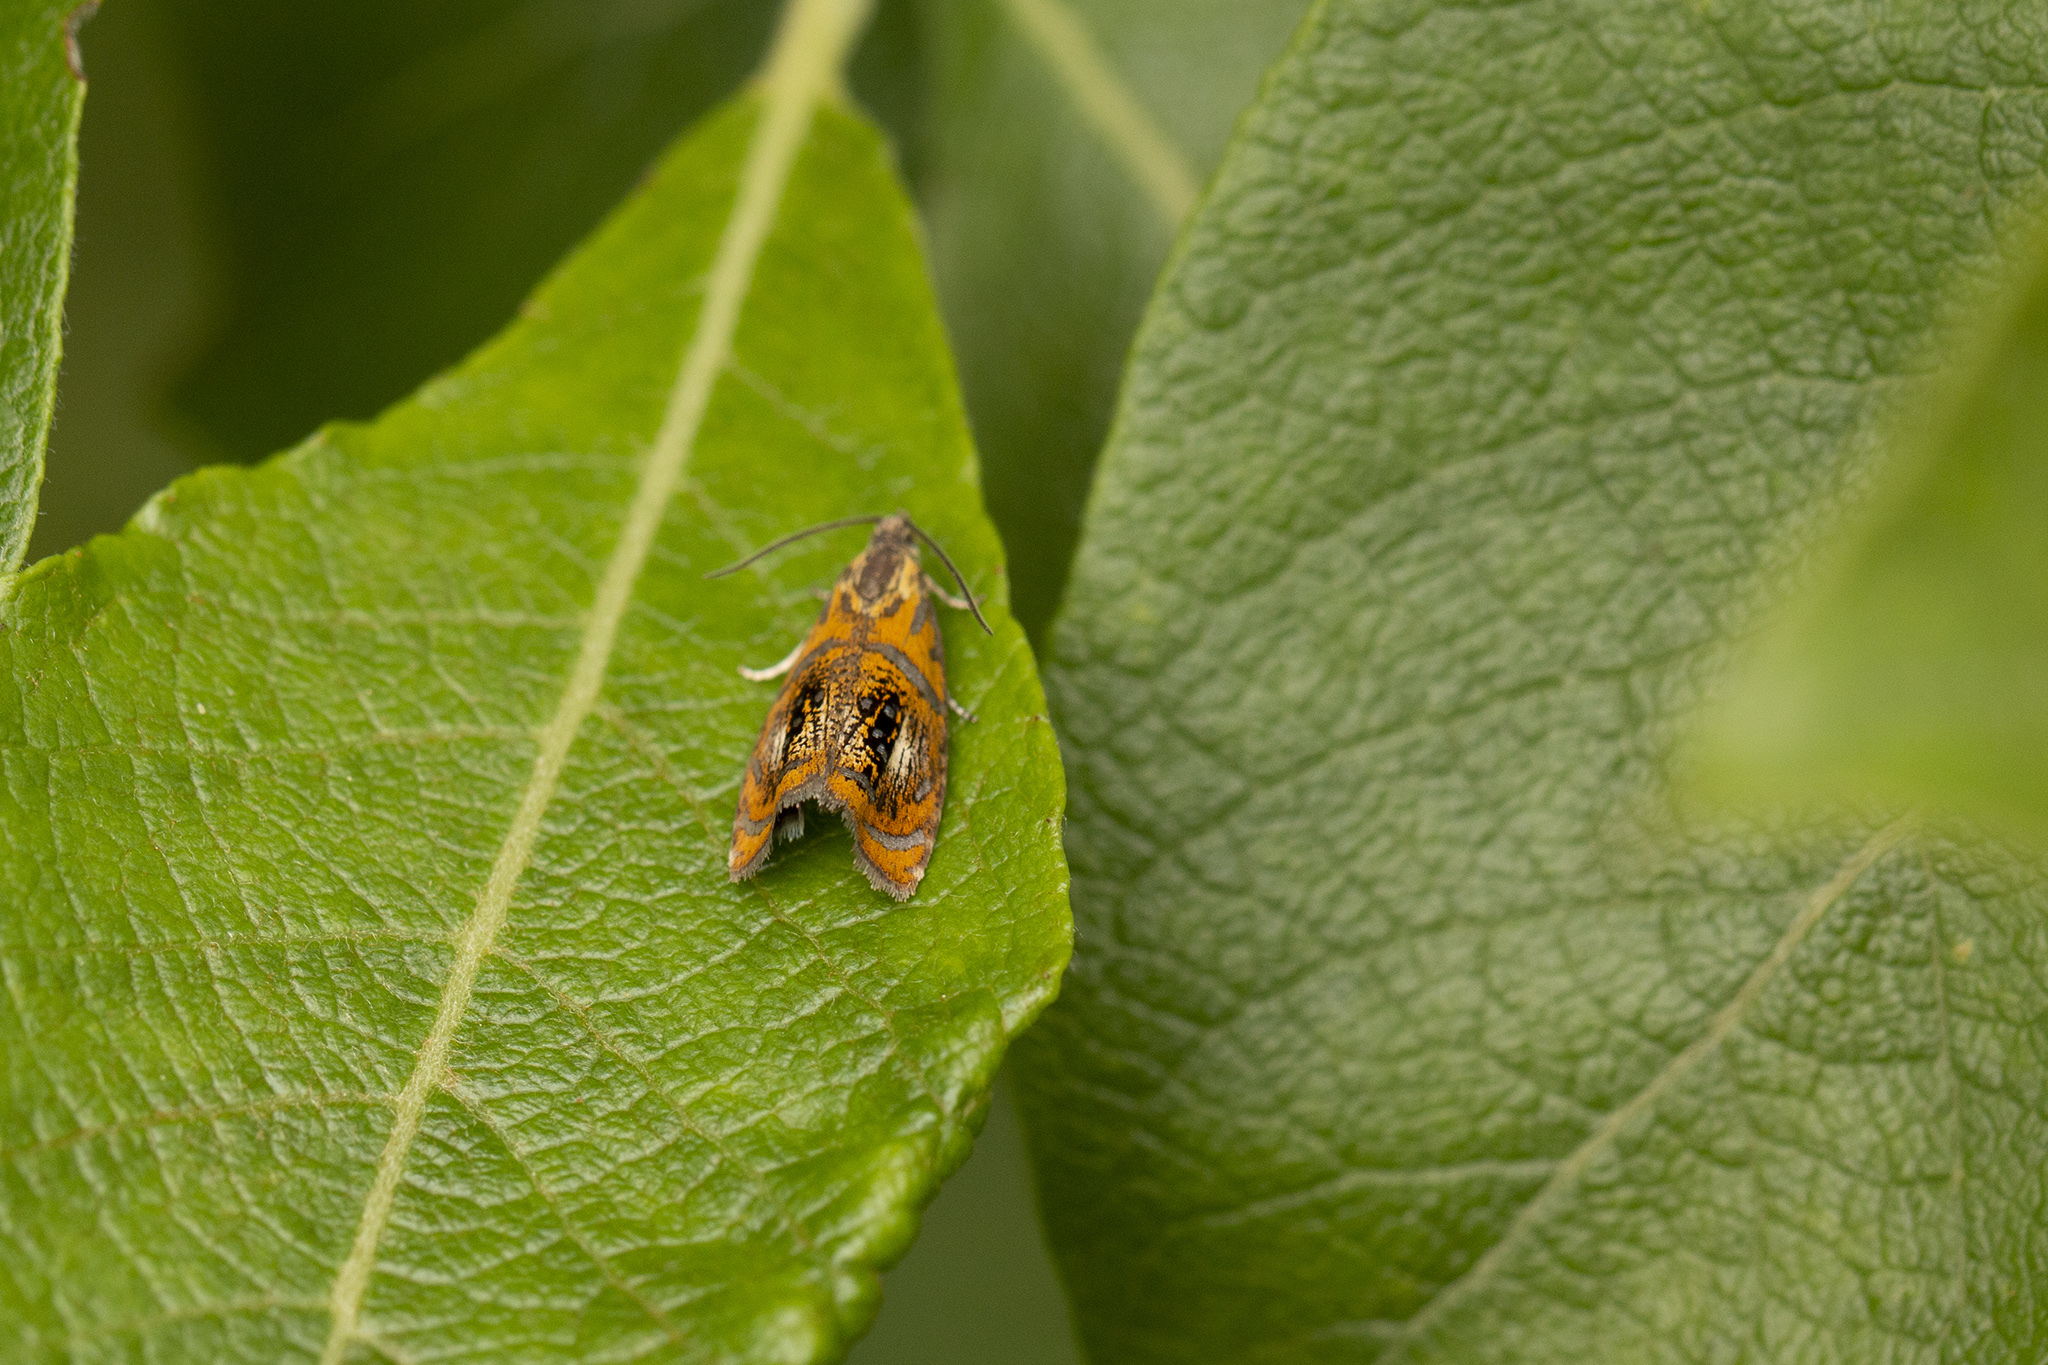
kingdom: Animalia
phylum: Arthropoda
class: Insecta
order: Lepidoptera
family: Tortricidae
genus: Olethreutes
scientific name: Olethreutes arcuella
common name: Arched marble
